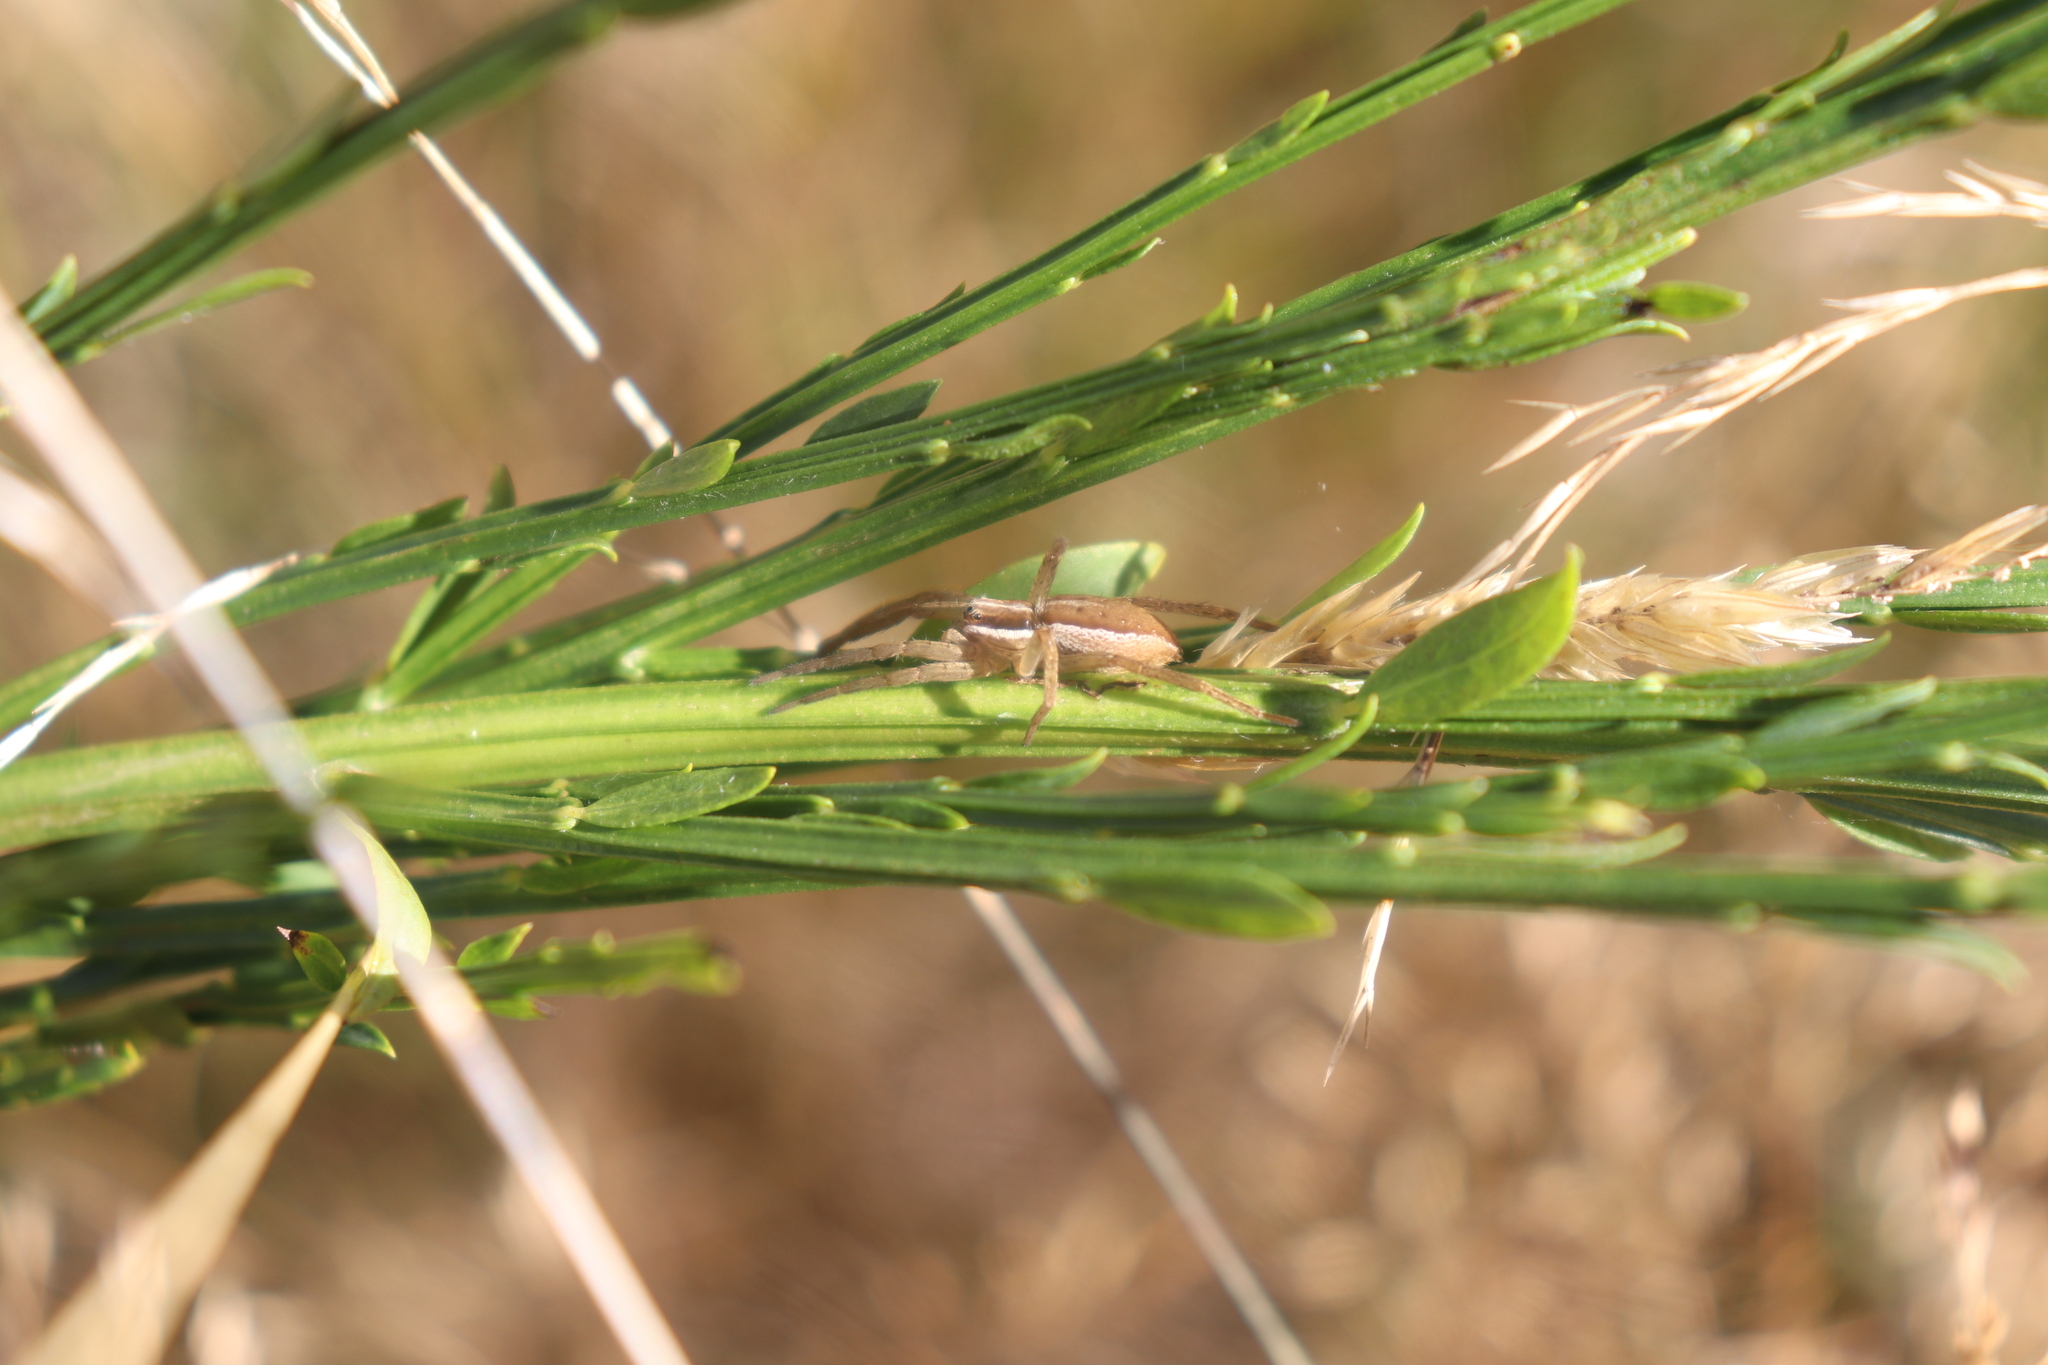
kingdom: Animalia
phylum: Arthropoda
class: Arachnida
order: Araneae
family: Pisauridae
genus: Dolomedes
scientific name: Dolomedes minor
